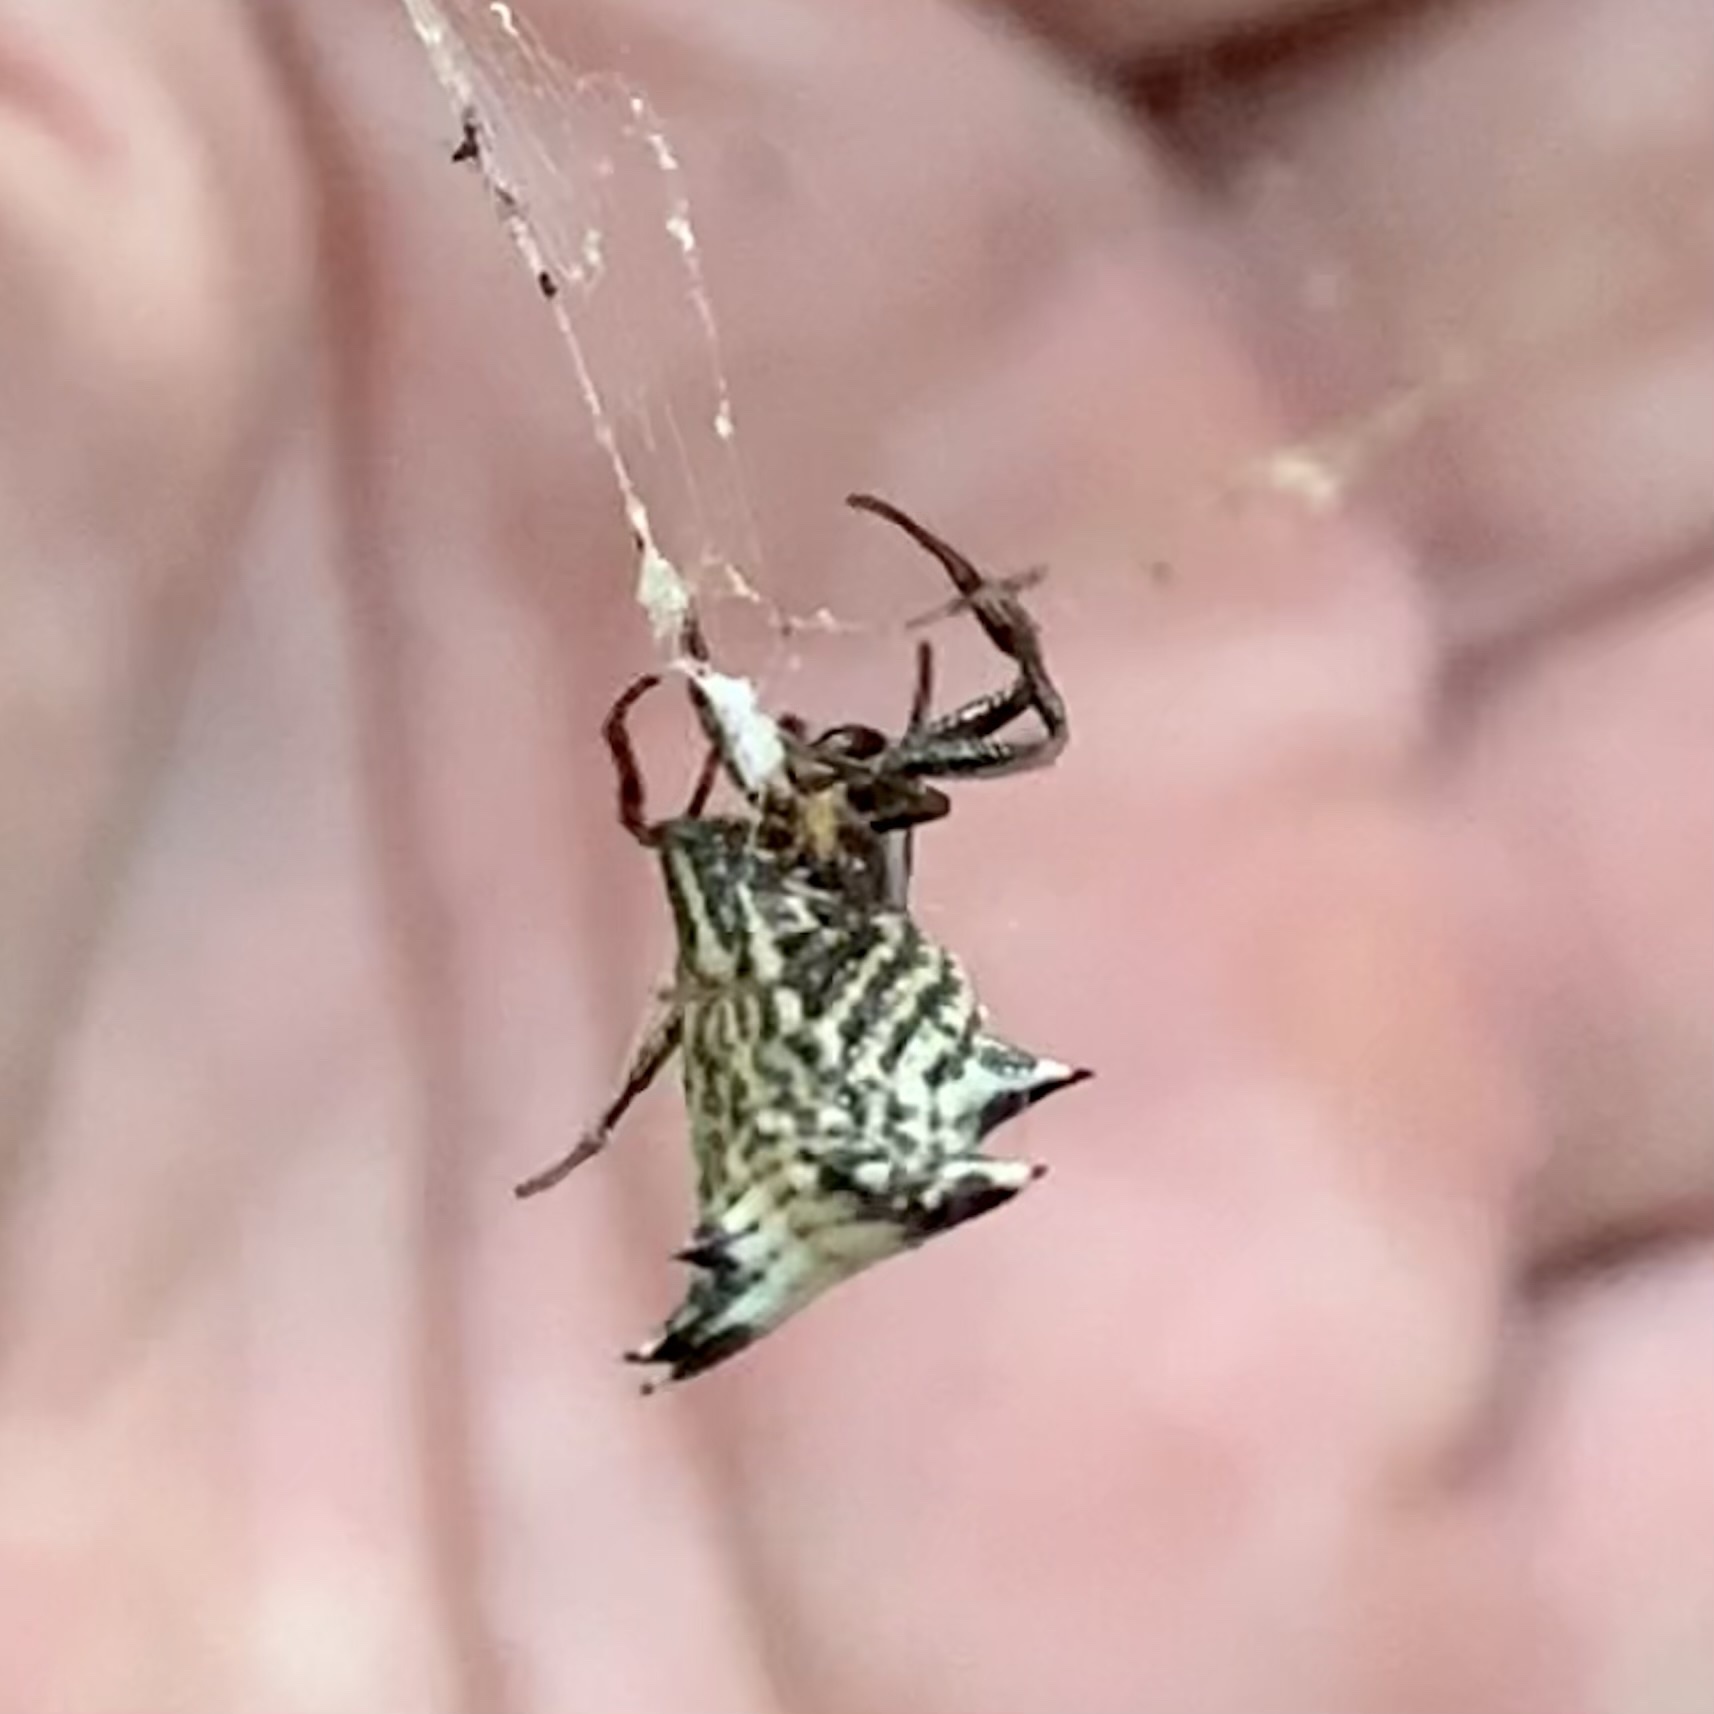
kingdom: Animalia
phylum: Arthropoda
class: Arachnida
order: Araneae
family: Araneidae
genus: Micrathena
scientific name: Micrathena gracilis
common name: Orb weavers
